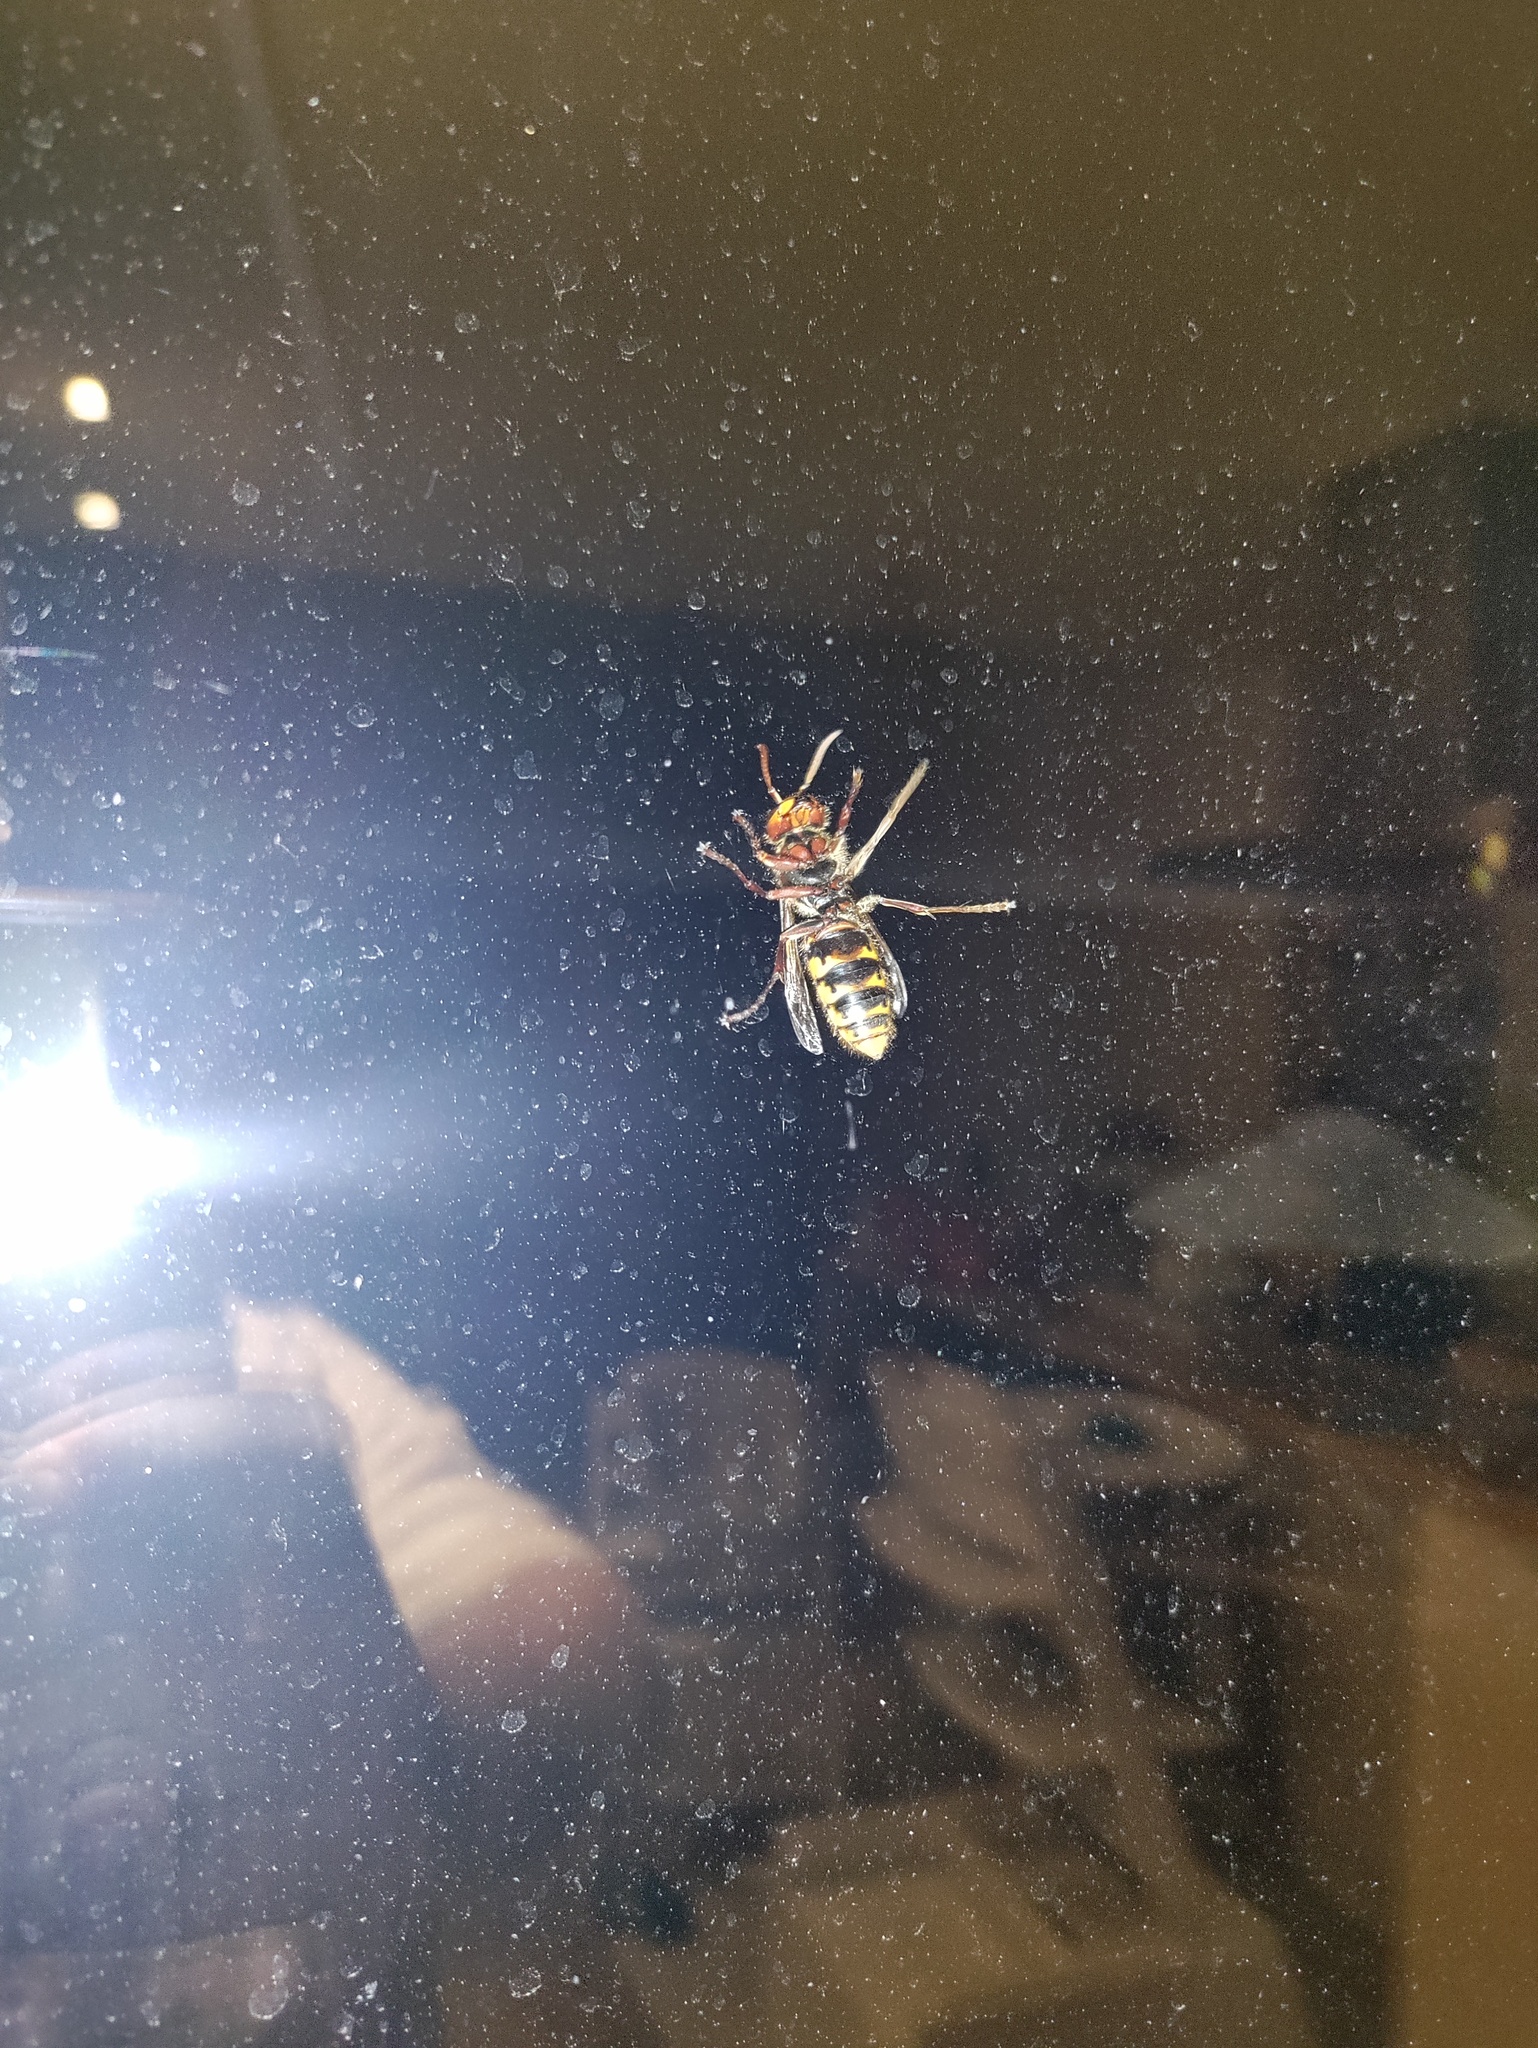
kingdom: Animalia
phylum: Arthropoda
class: Insecta
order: Hymenoptera
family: Vespidae
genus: Vespa
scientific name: Vespa crabro
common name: Hornet
